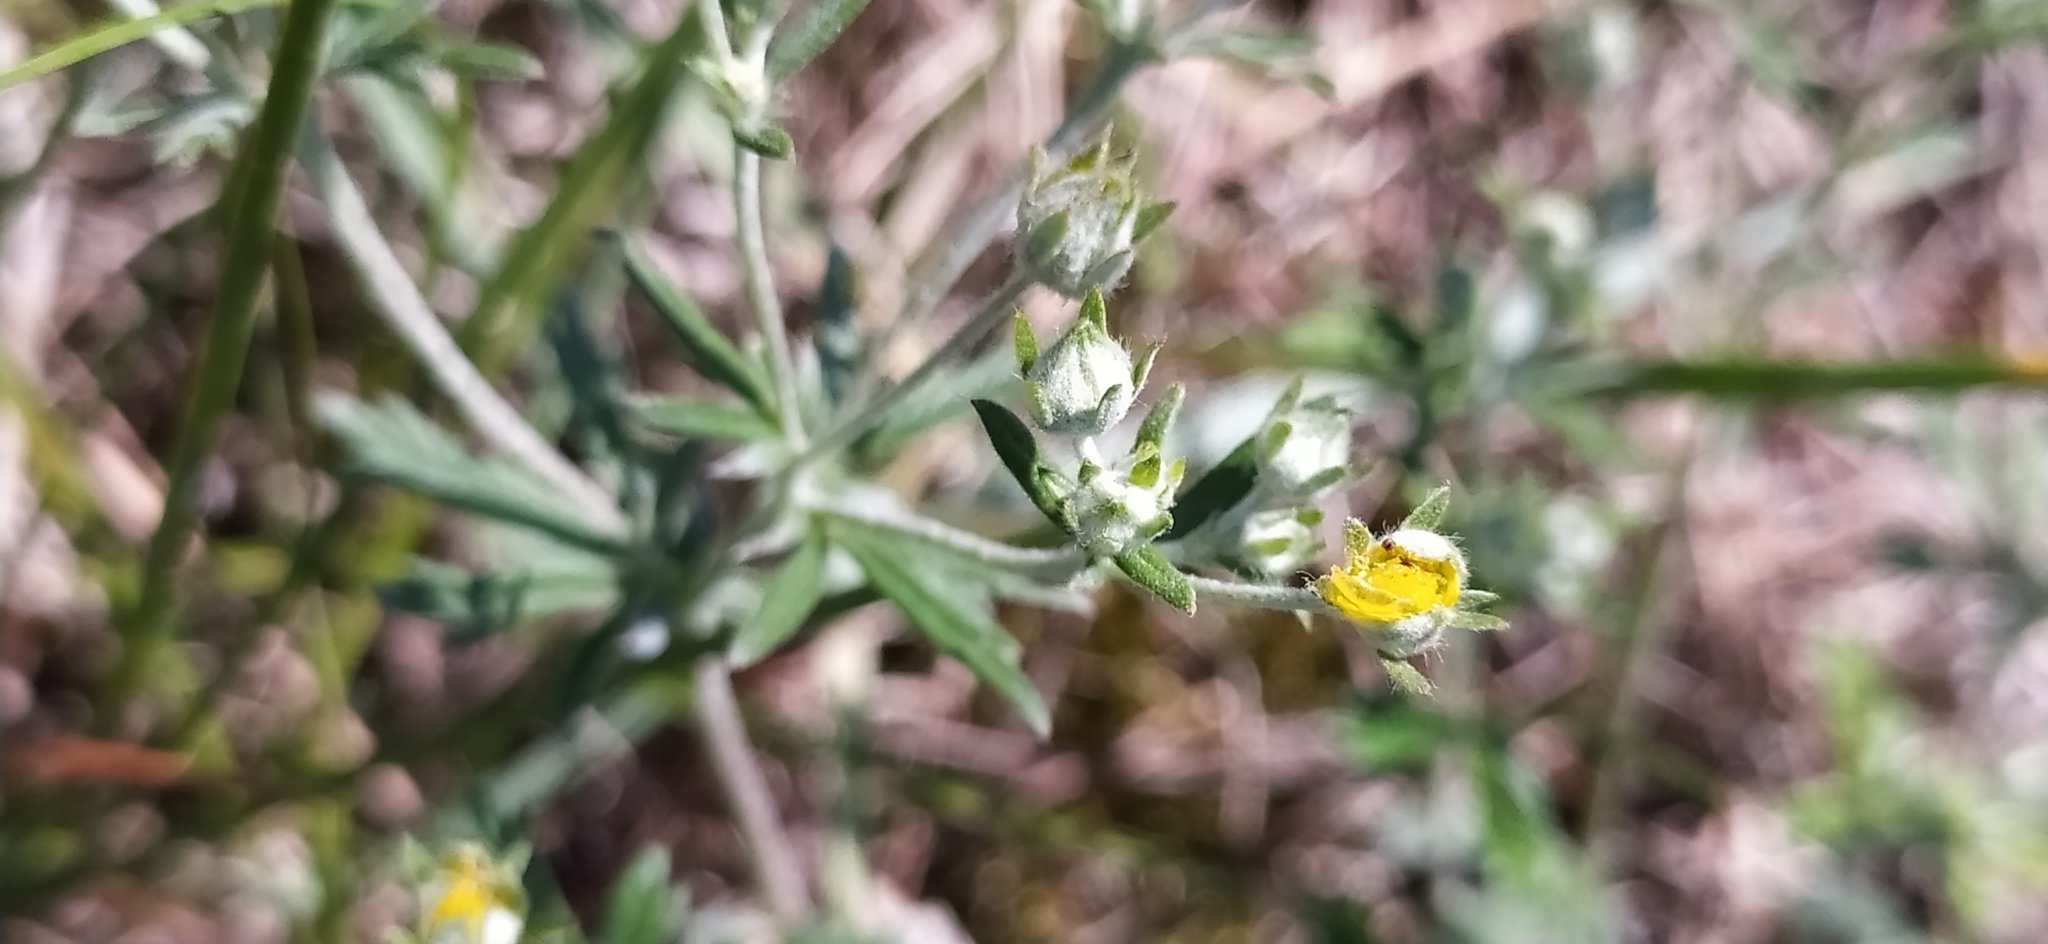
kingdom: Plantae
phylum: Tracheophyta
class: Magnoliopsida
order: Rosales
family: Rosaceae
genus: Potentilla
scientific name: Potentilla argentea
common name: Hoary cinquefoil
